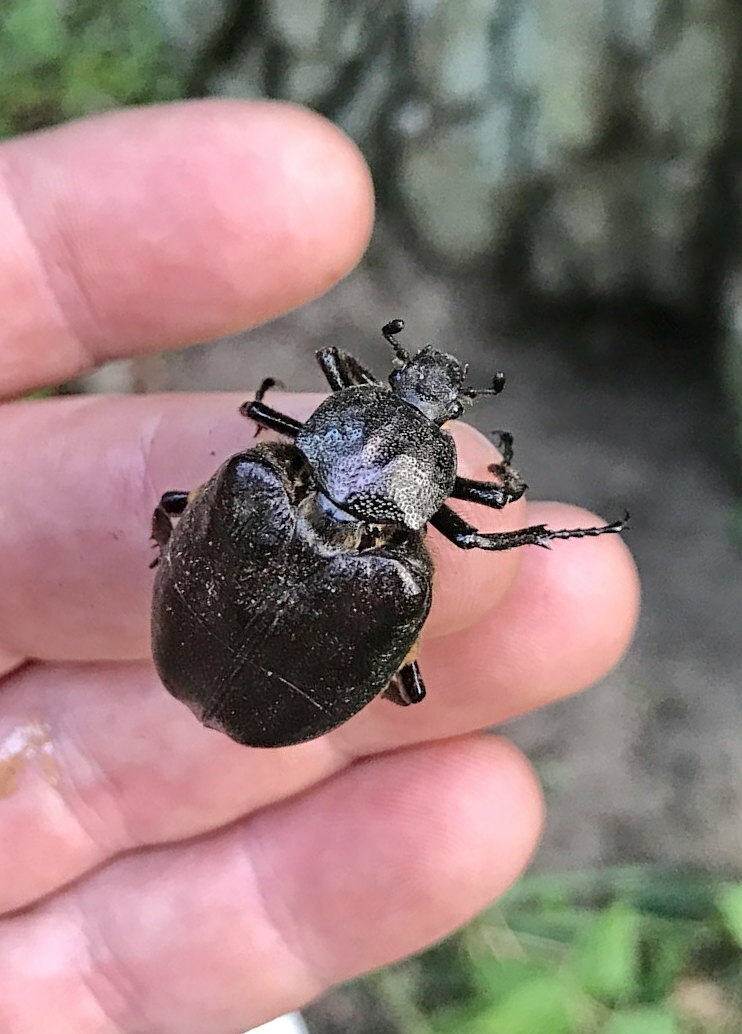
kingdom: Animalia
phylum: Arthropoda
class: Insecta
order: Coleoptera
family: Scarabaeidae
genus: Osmoderma
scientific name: Osmoderma barnabita
